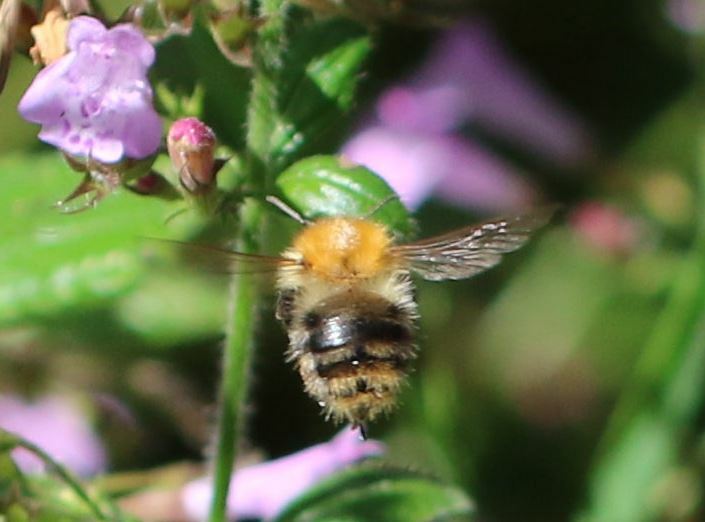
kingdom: Animalia
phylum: Arthropoda
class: Insecta
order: Hymenoptera
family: Apidae
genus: Bombus
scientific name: Bombus pascuorum
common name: Common carder bee
